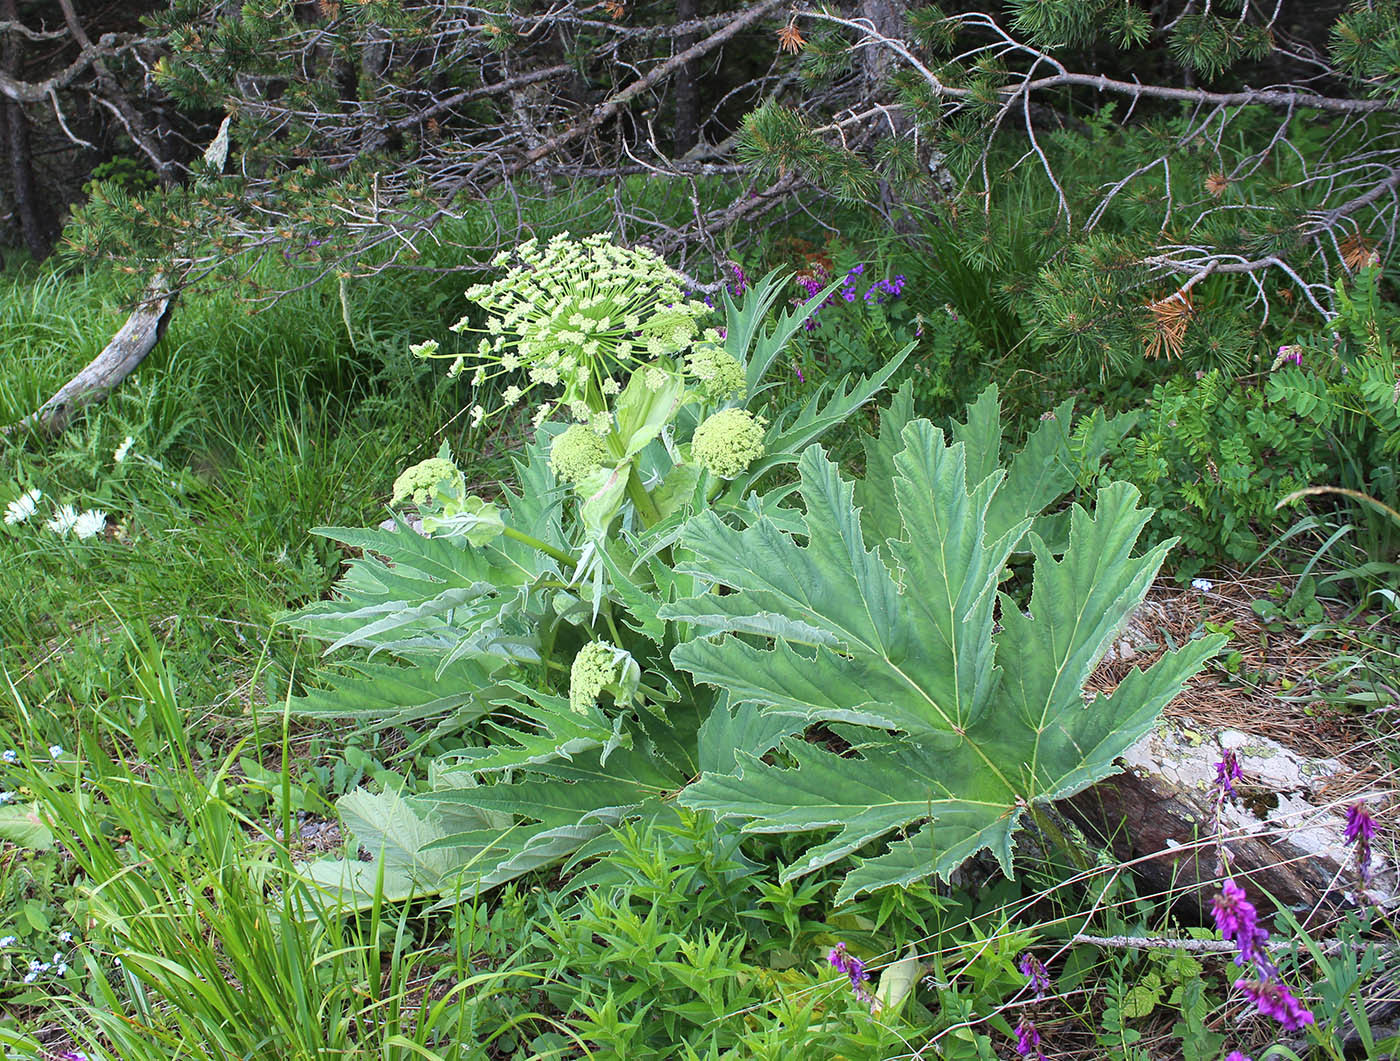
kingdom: Plantae
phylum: Tracheophyta
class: Magnoliopsida
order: Apiales
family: Apiaceae
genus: Heracleum
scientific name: Heracleum leskovii
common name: Leskov's cow-parsnip
